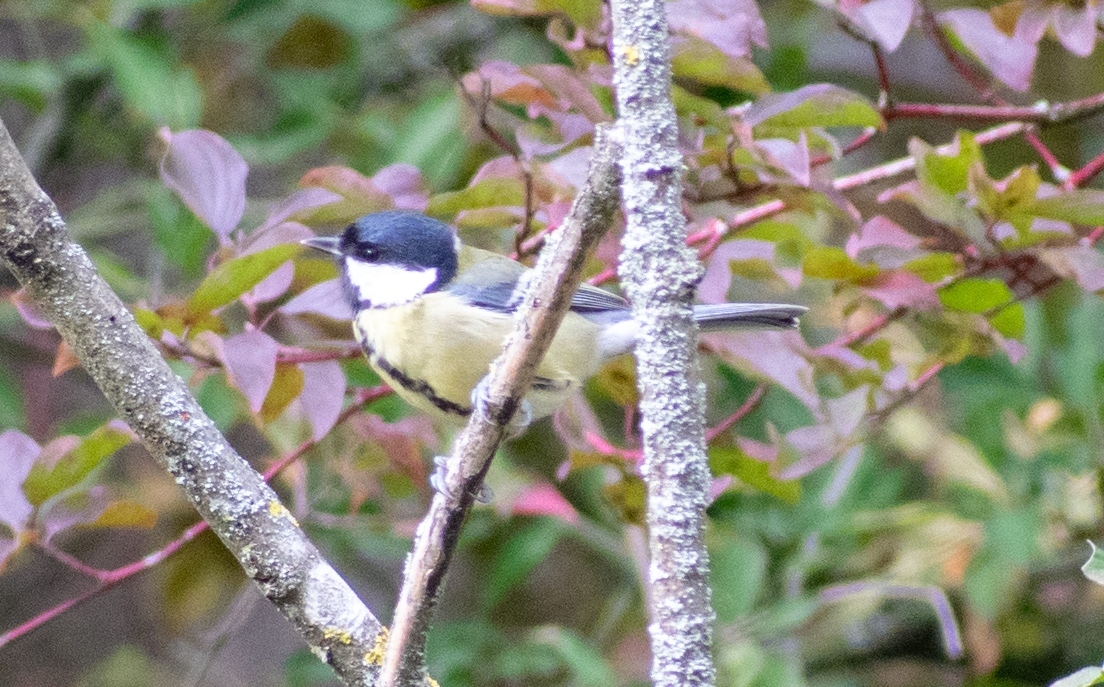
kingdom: Animalia
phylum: Chordata
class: Aves
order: Passeriformes
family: Paridae
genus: Parus
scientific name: Parus major
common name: Great tit
